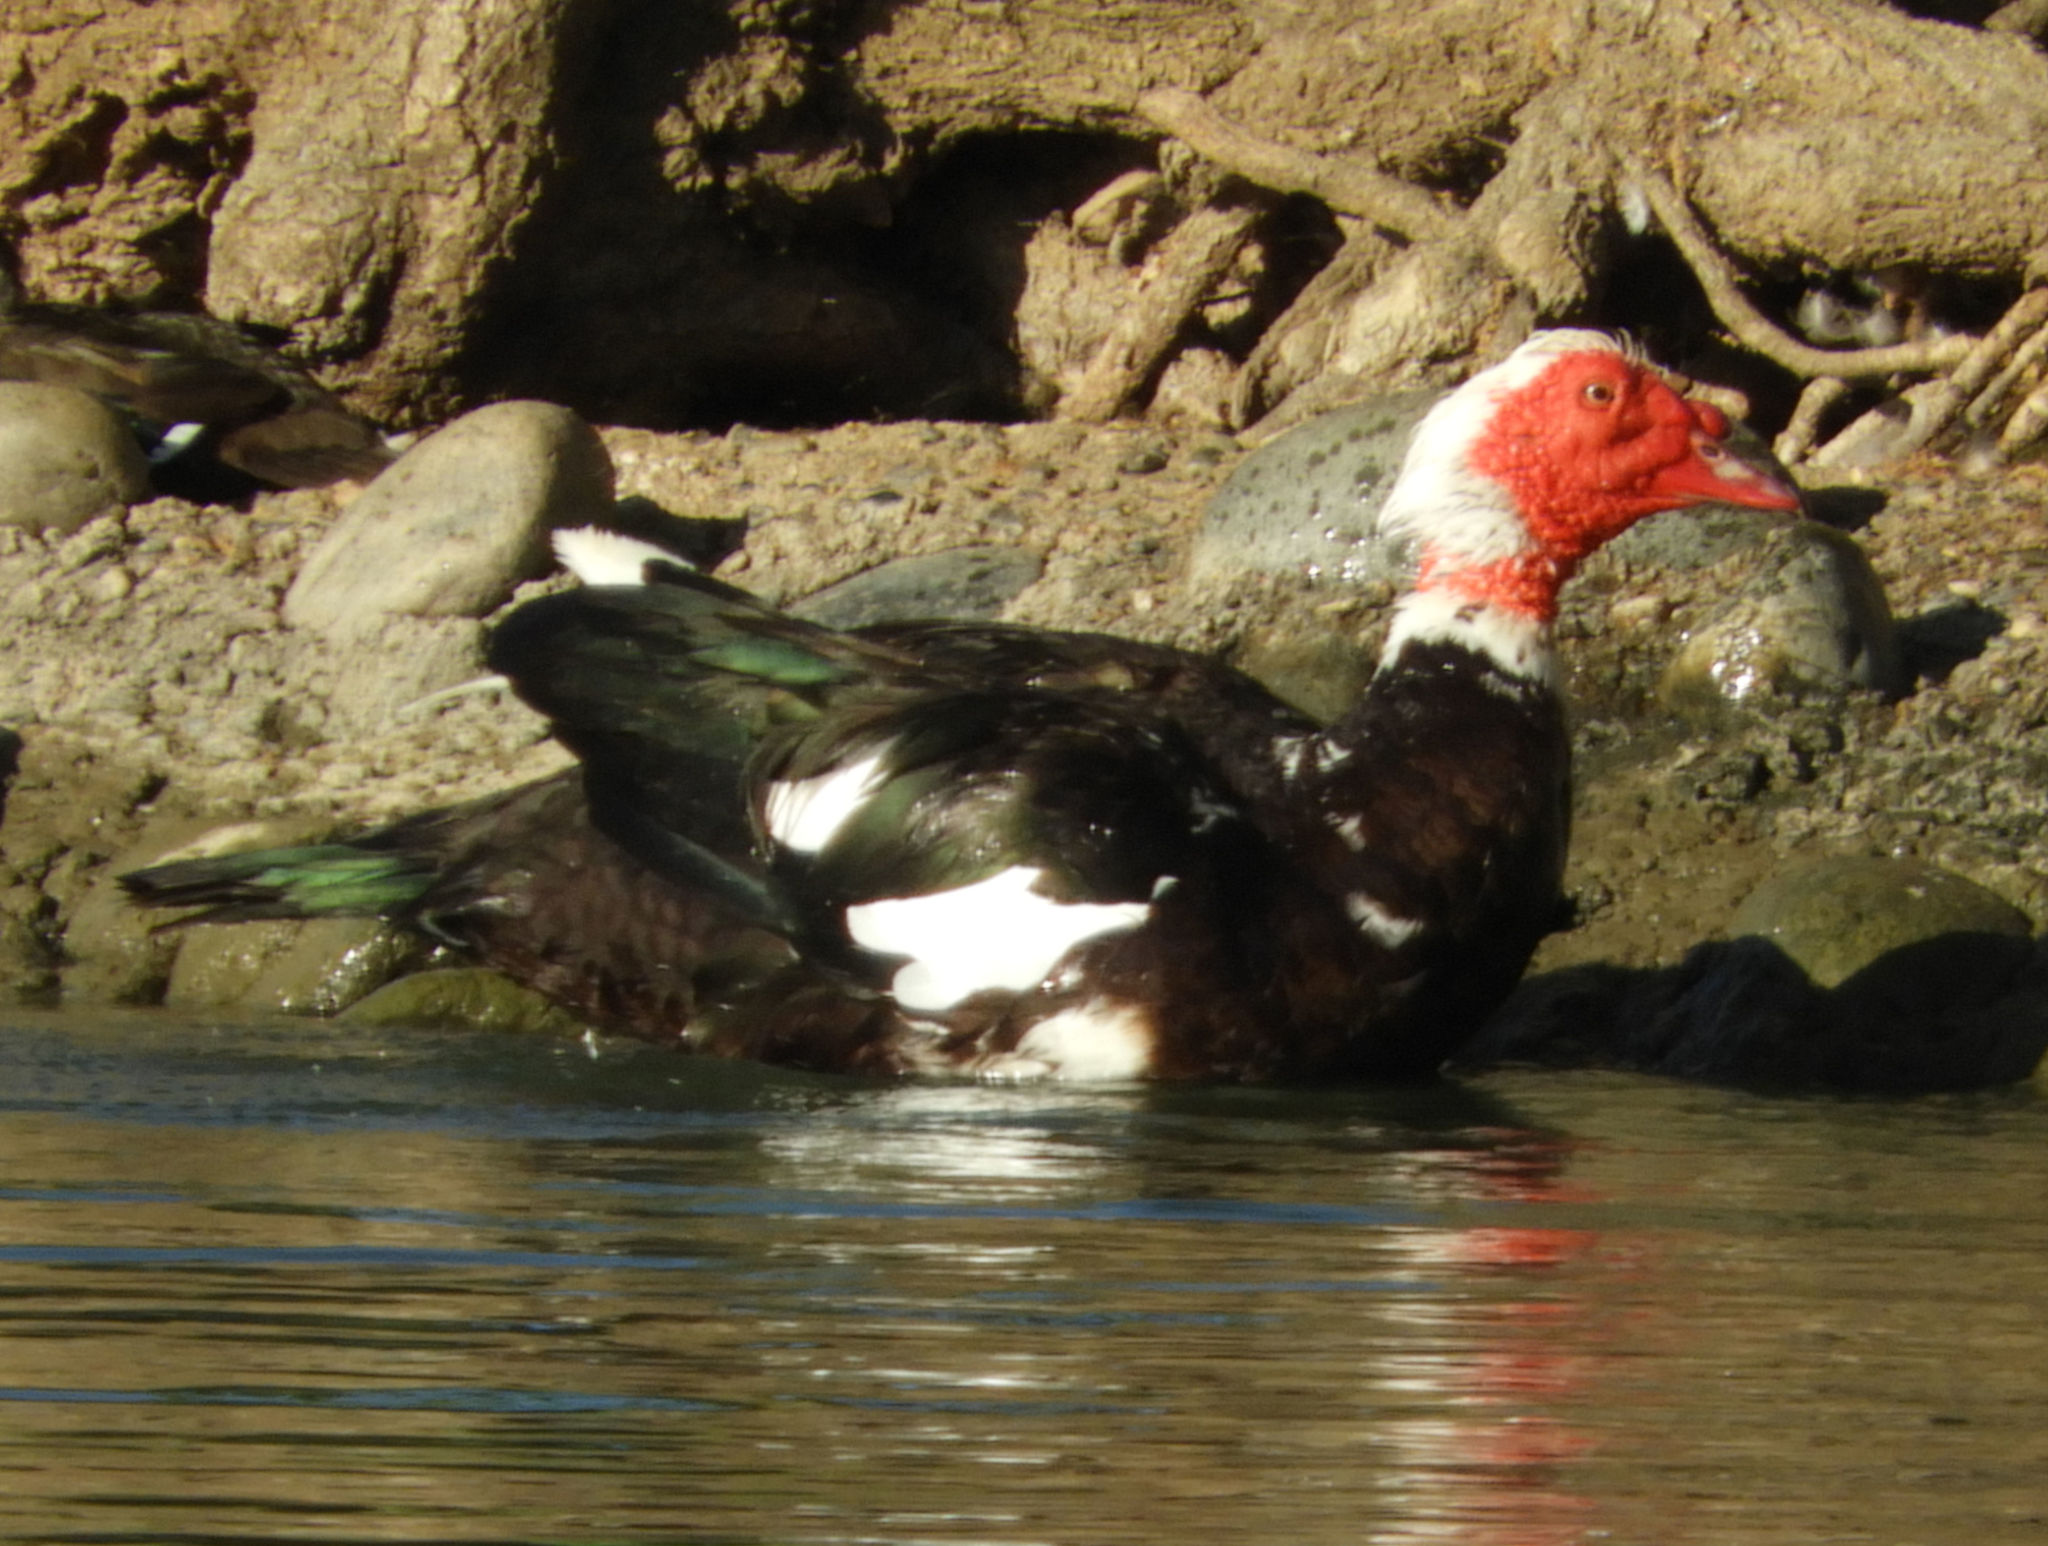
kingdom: Animalia
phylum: Chordata
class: Aves
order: Anseriformes
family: Anatidae
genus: Cairina
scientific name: Cairina moschata
